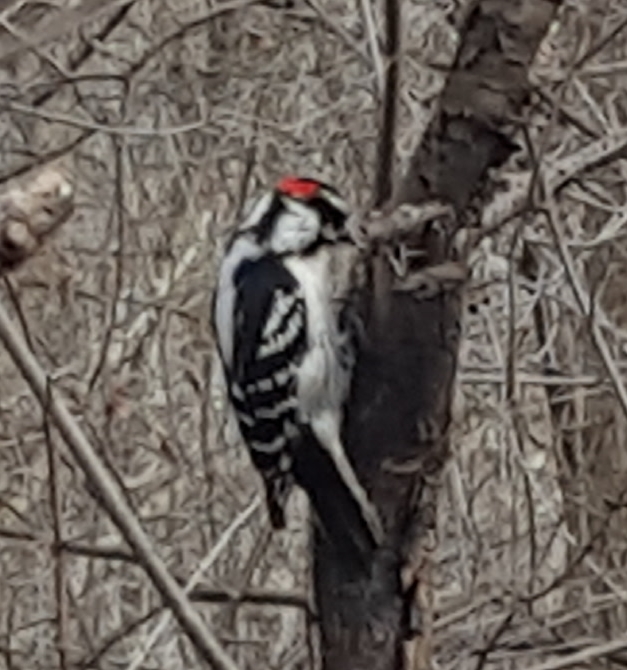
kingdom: Animalia
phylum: Chordata
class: Aves
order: Piciformes
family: Picidae
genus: Dryobates
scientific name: Dryobates pubescens
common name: Downy woodpecker
